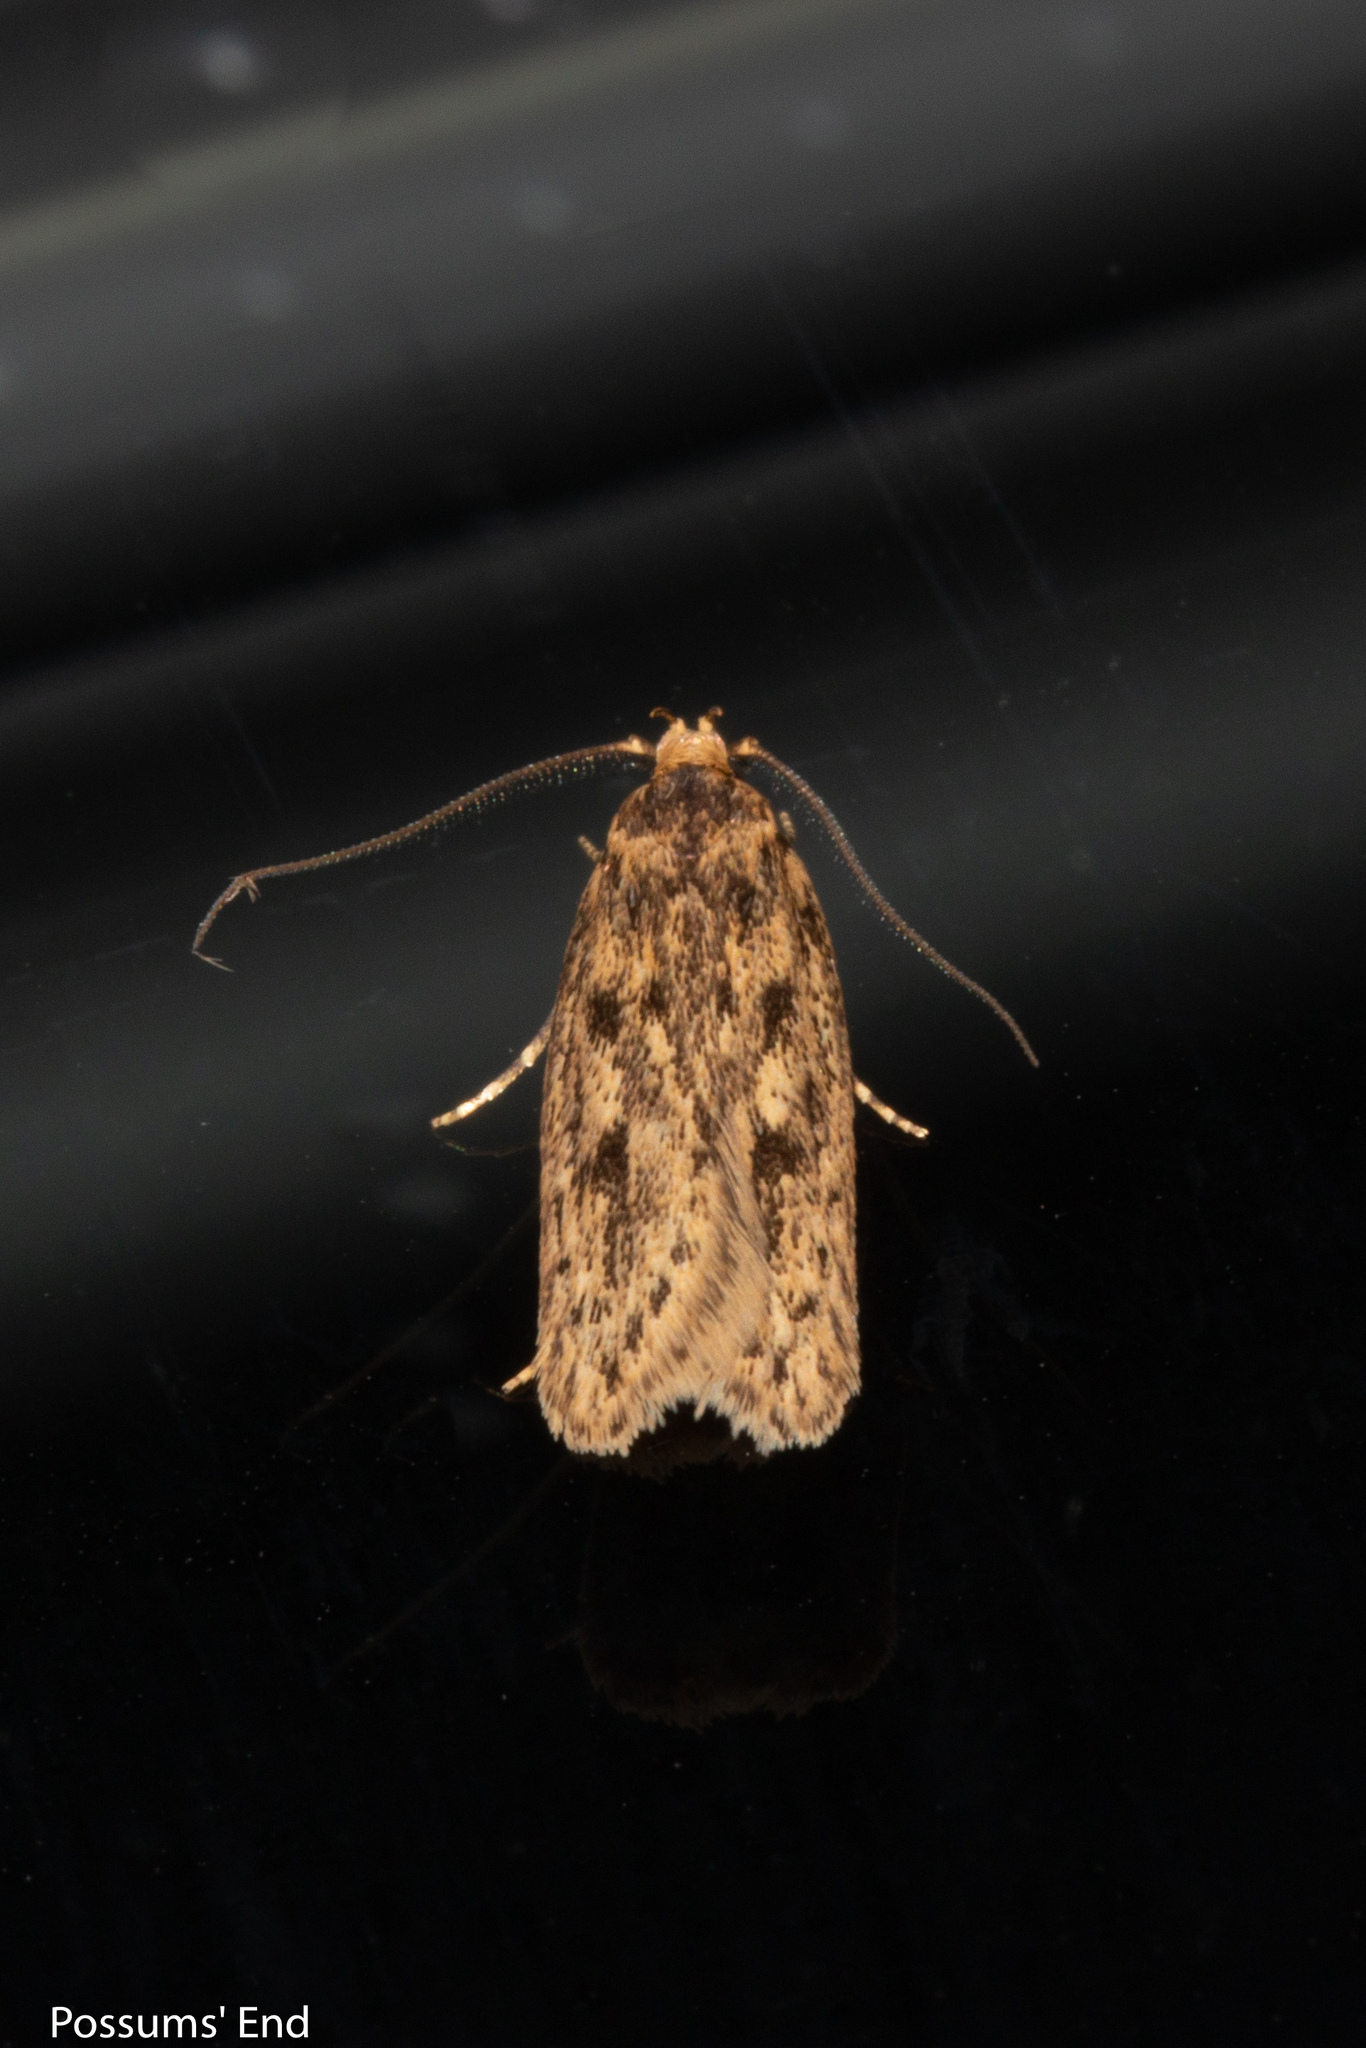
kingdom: Animalia
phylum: Arthropoda
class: Insecta
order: Lepidoptera
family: Oecophoridae
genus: Hofmannophila
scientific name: Hofmannophila pseudospretella
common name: Brown house moth
